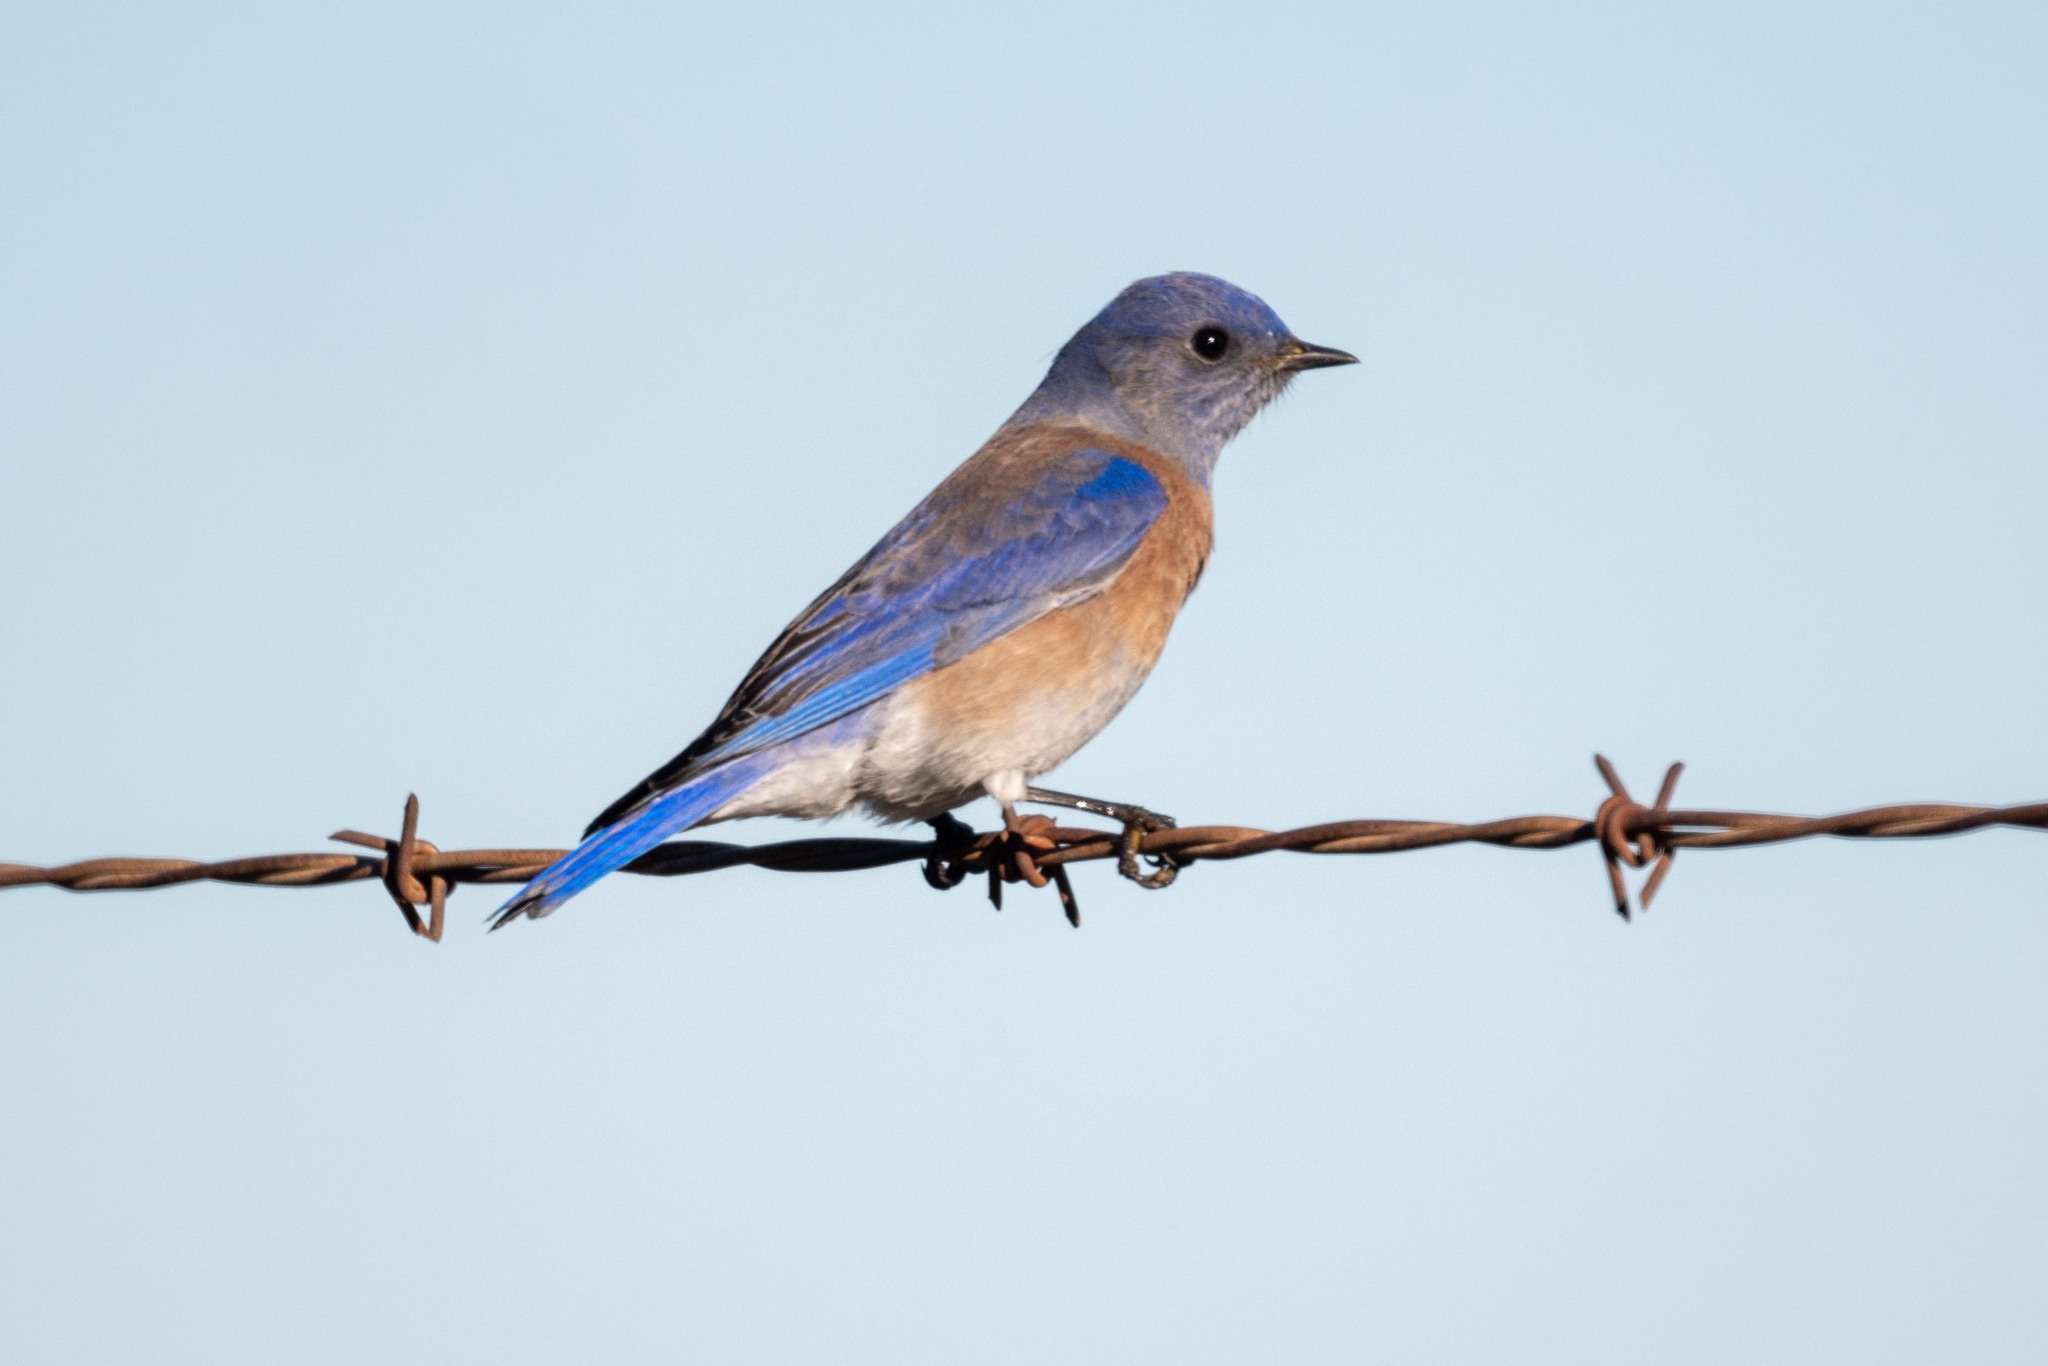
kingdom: Animalia
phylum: Chordata
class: Aves
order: Passeriformes
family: Turdidae
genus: Sialia
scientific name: Sialia mexicana
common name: Western bluebird
